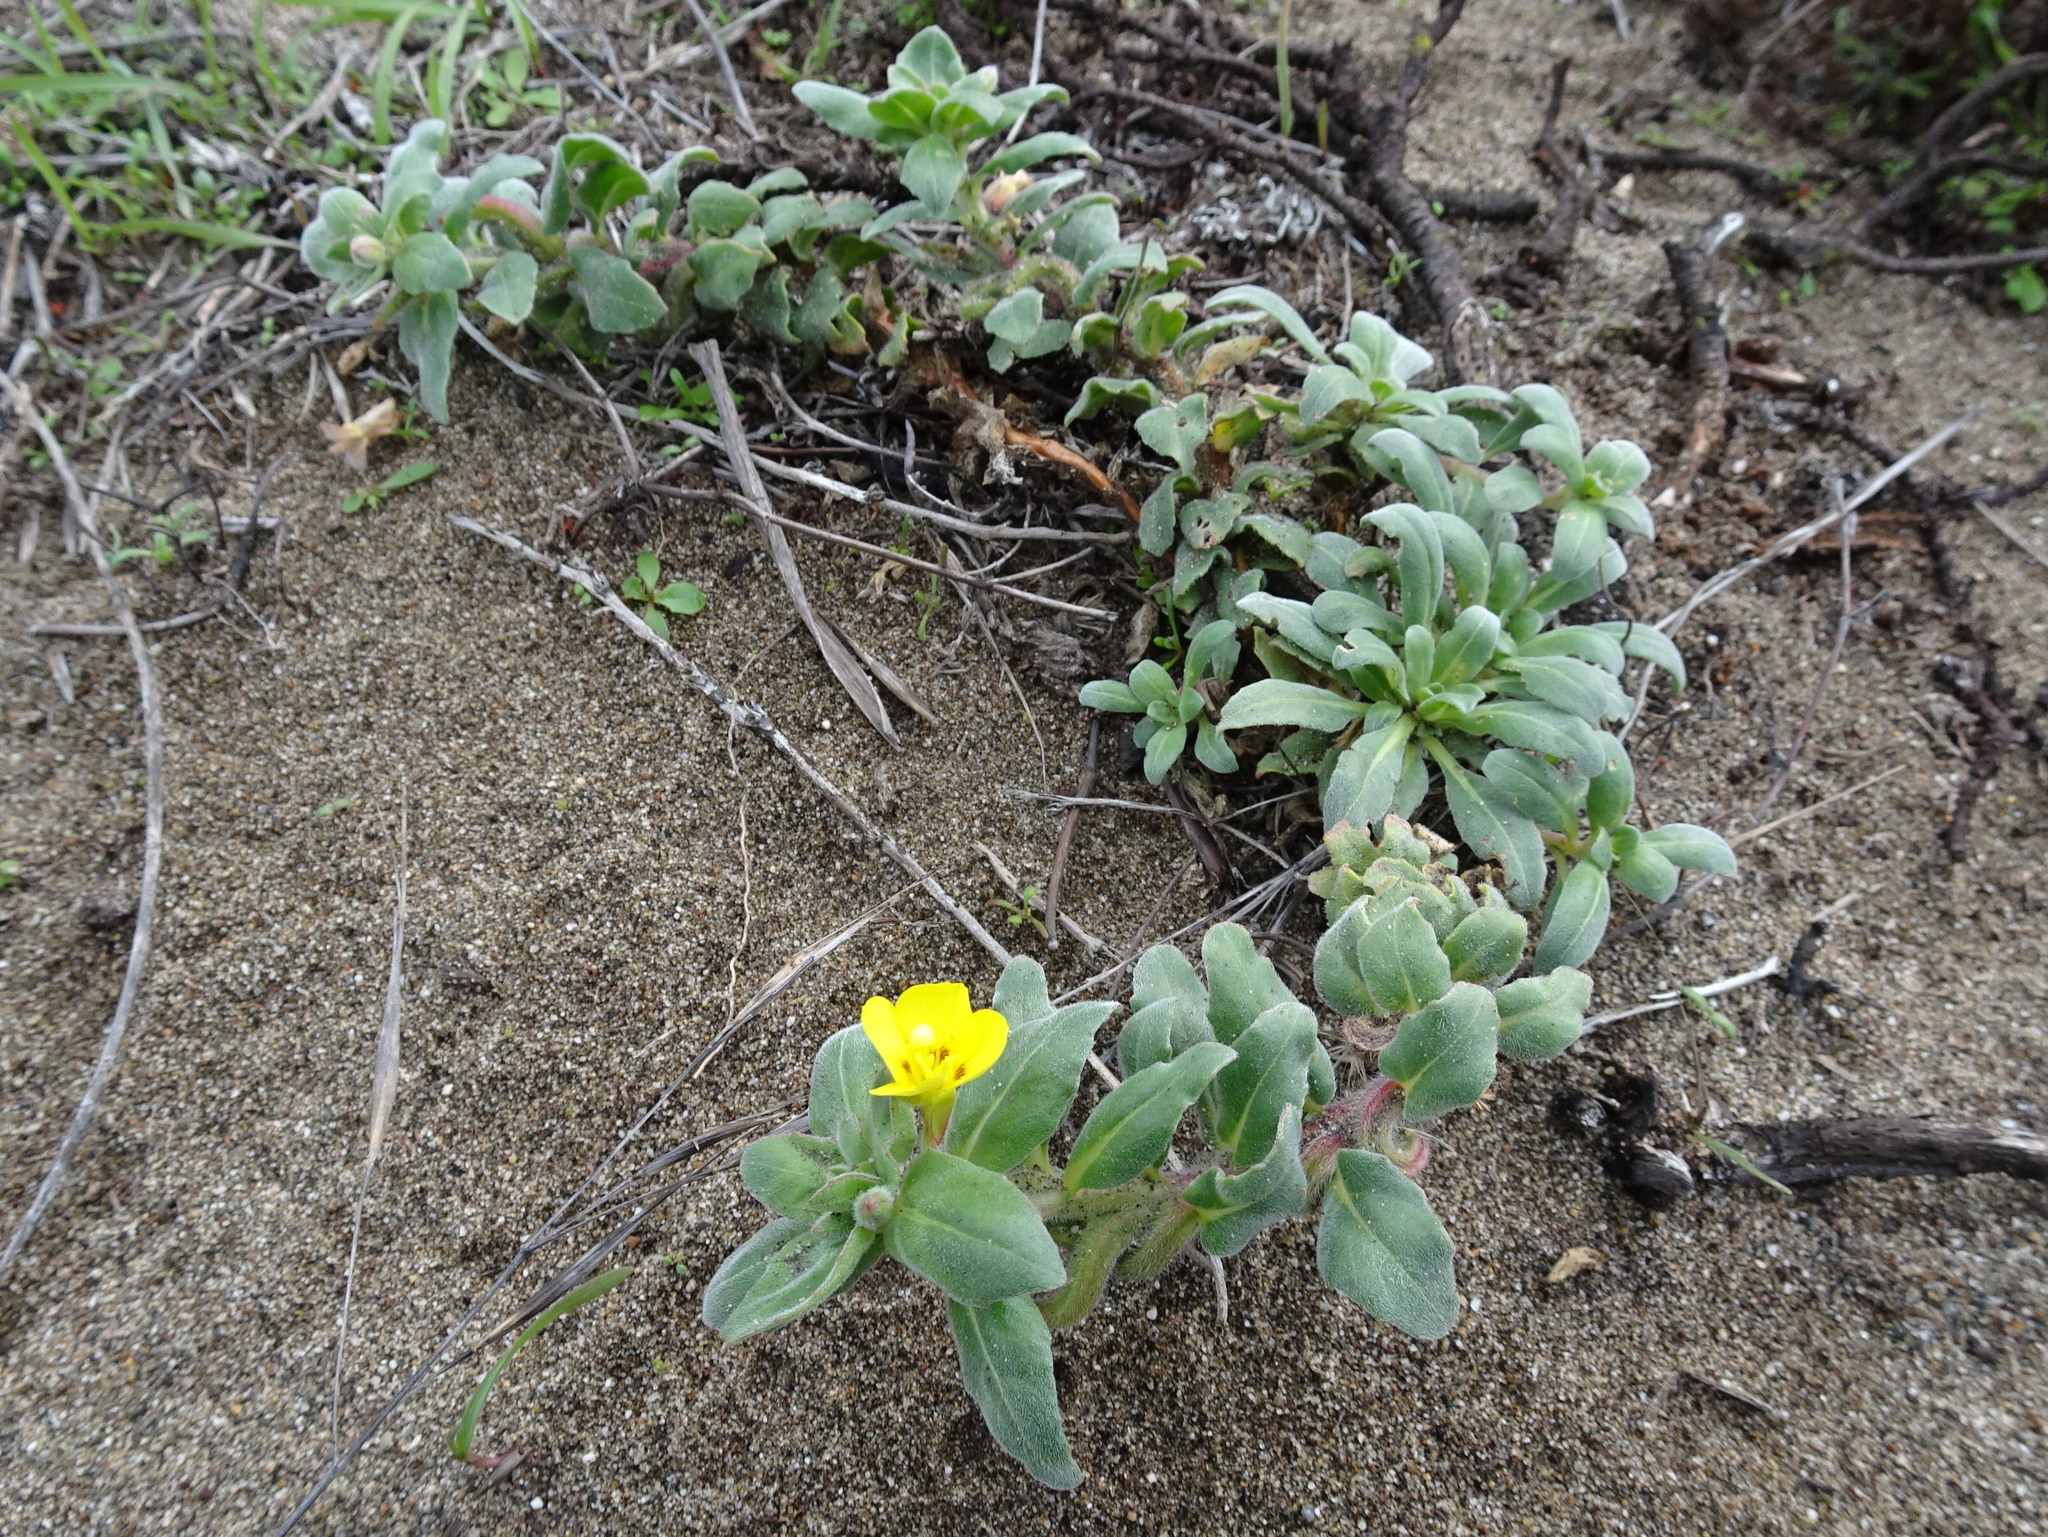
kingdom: Plantae
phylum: Tracheophyta
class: Magnoliopsida
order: Myrtales
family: Onagraceae
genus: Camissoniopsis
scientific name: Camissoniopsis cheiranthifolia
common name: Beach suncup
